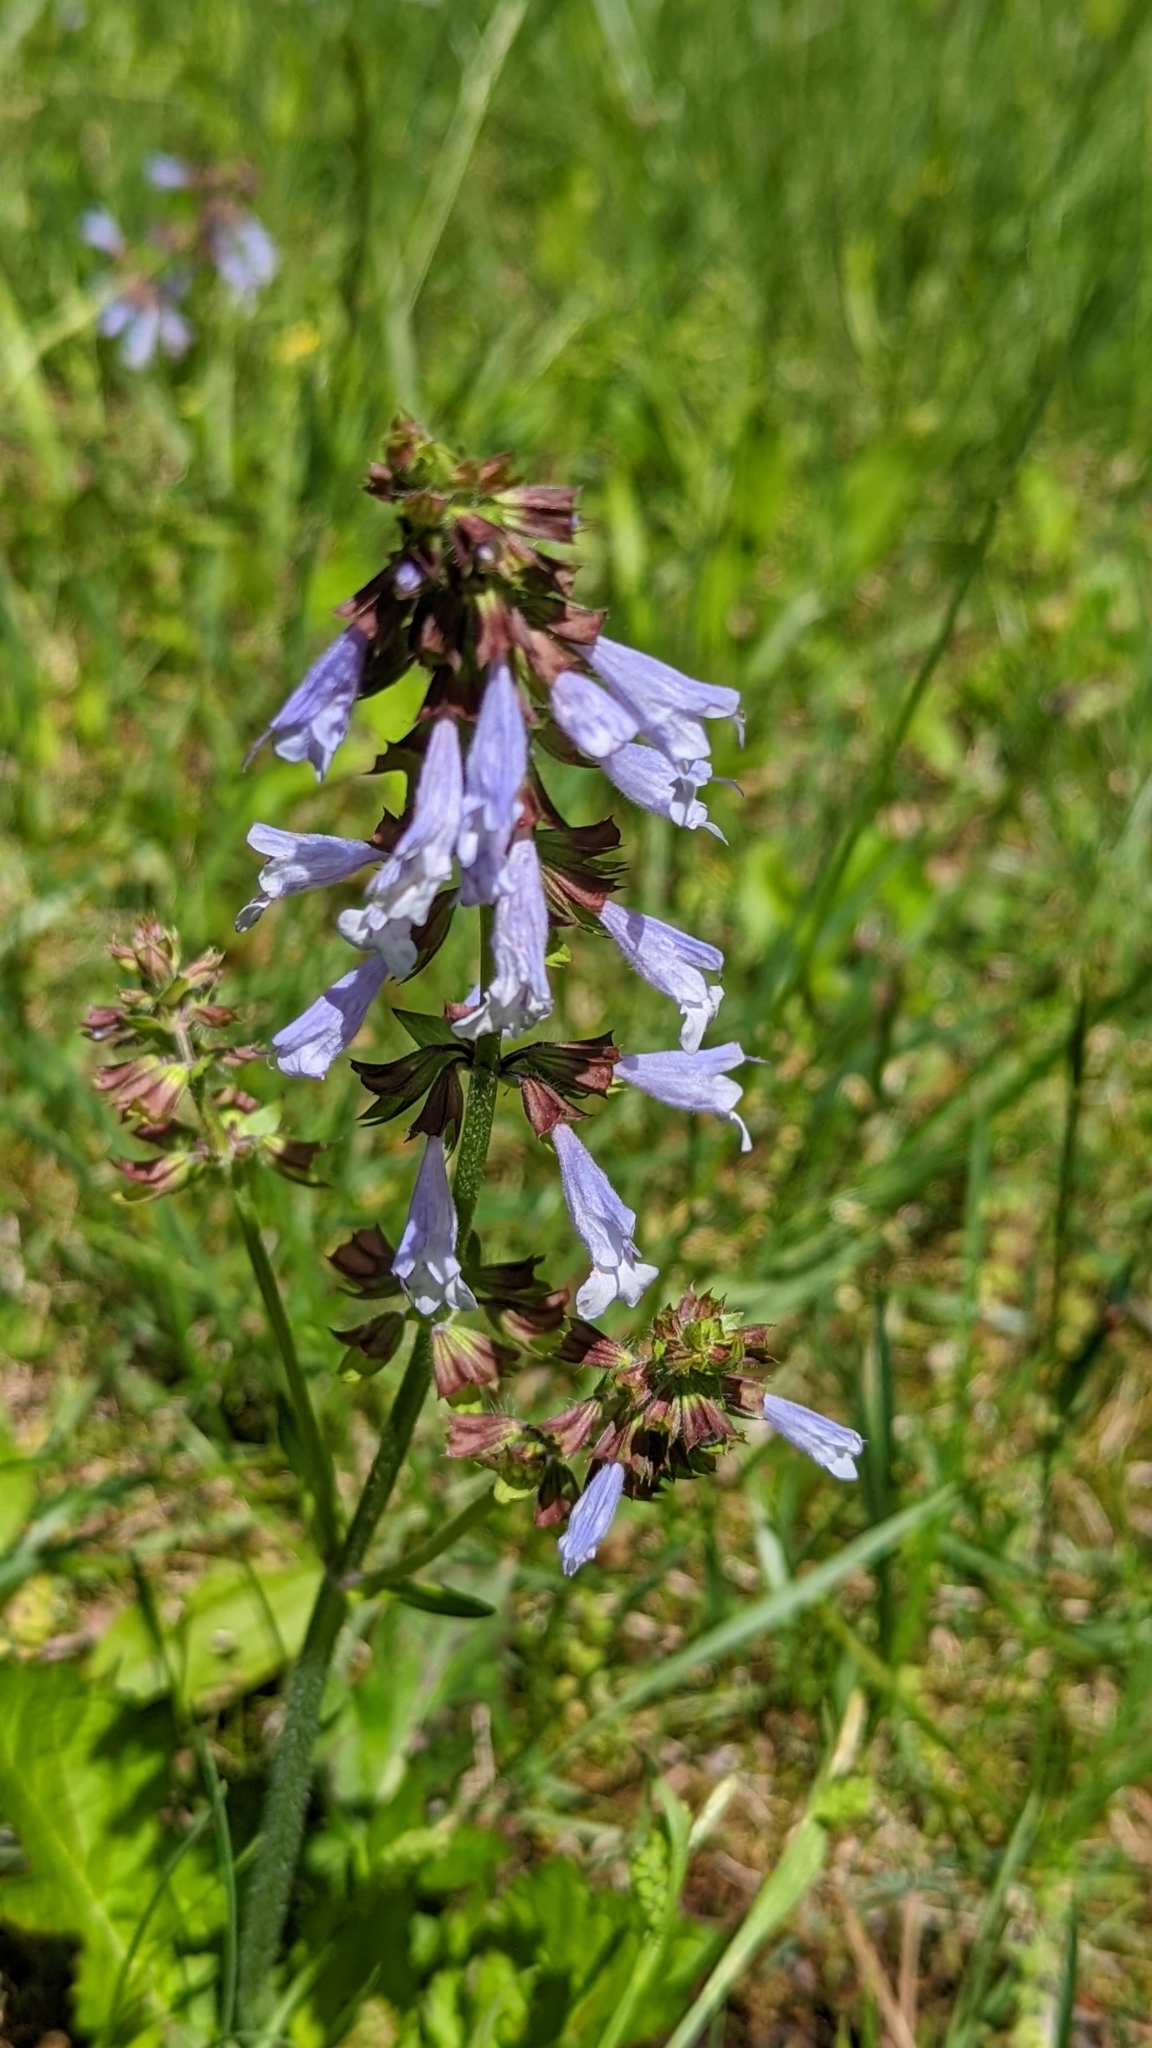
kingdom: Plantae
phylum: Tracheophyta
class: Magnoliopsida
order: Lamiales
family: Lamiaceae
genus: Salvia
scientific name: Salvia lyrata
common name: Cancerweed
